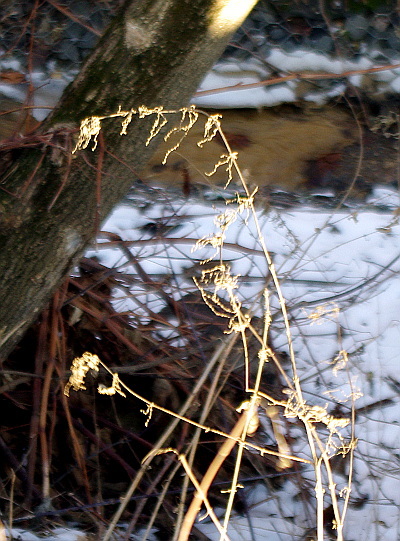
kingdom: Plantae
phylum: Tracheophyta
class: Magnoliopsida
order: Rosales
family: Urticaceae
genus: Urtica
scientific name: Urtica dioica
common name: Common nettle
